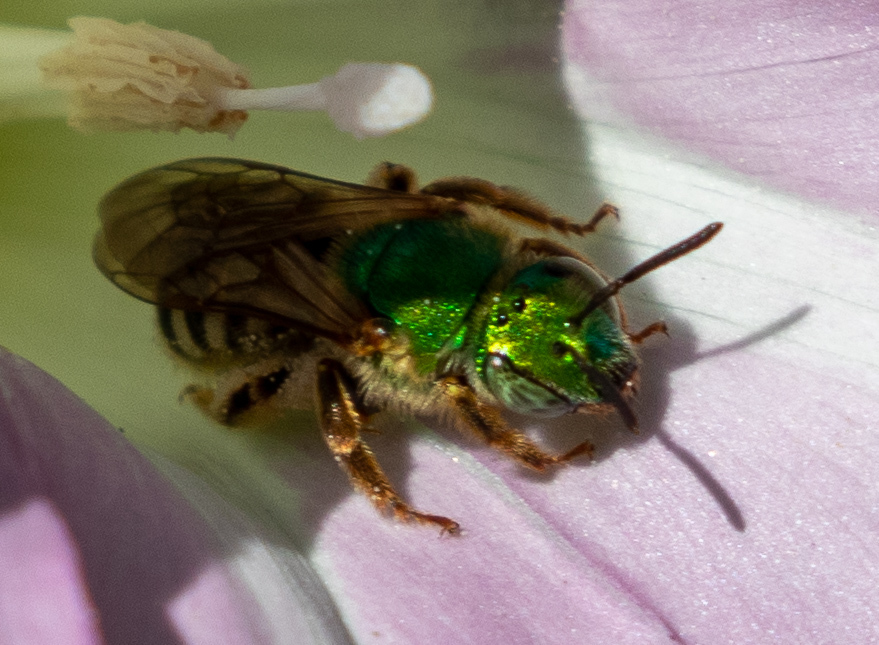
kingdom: Animalia
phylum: Arthropoda
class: Insecta
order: Hymenoptera
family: Halictidae
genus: Agapostemon
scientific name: Agapostemon virescens
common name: Bicolored striped sweat bee
